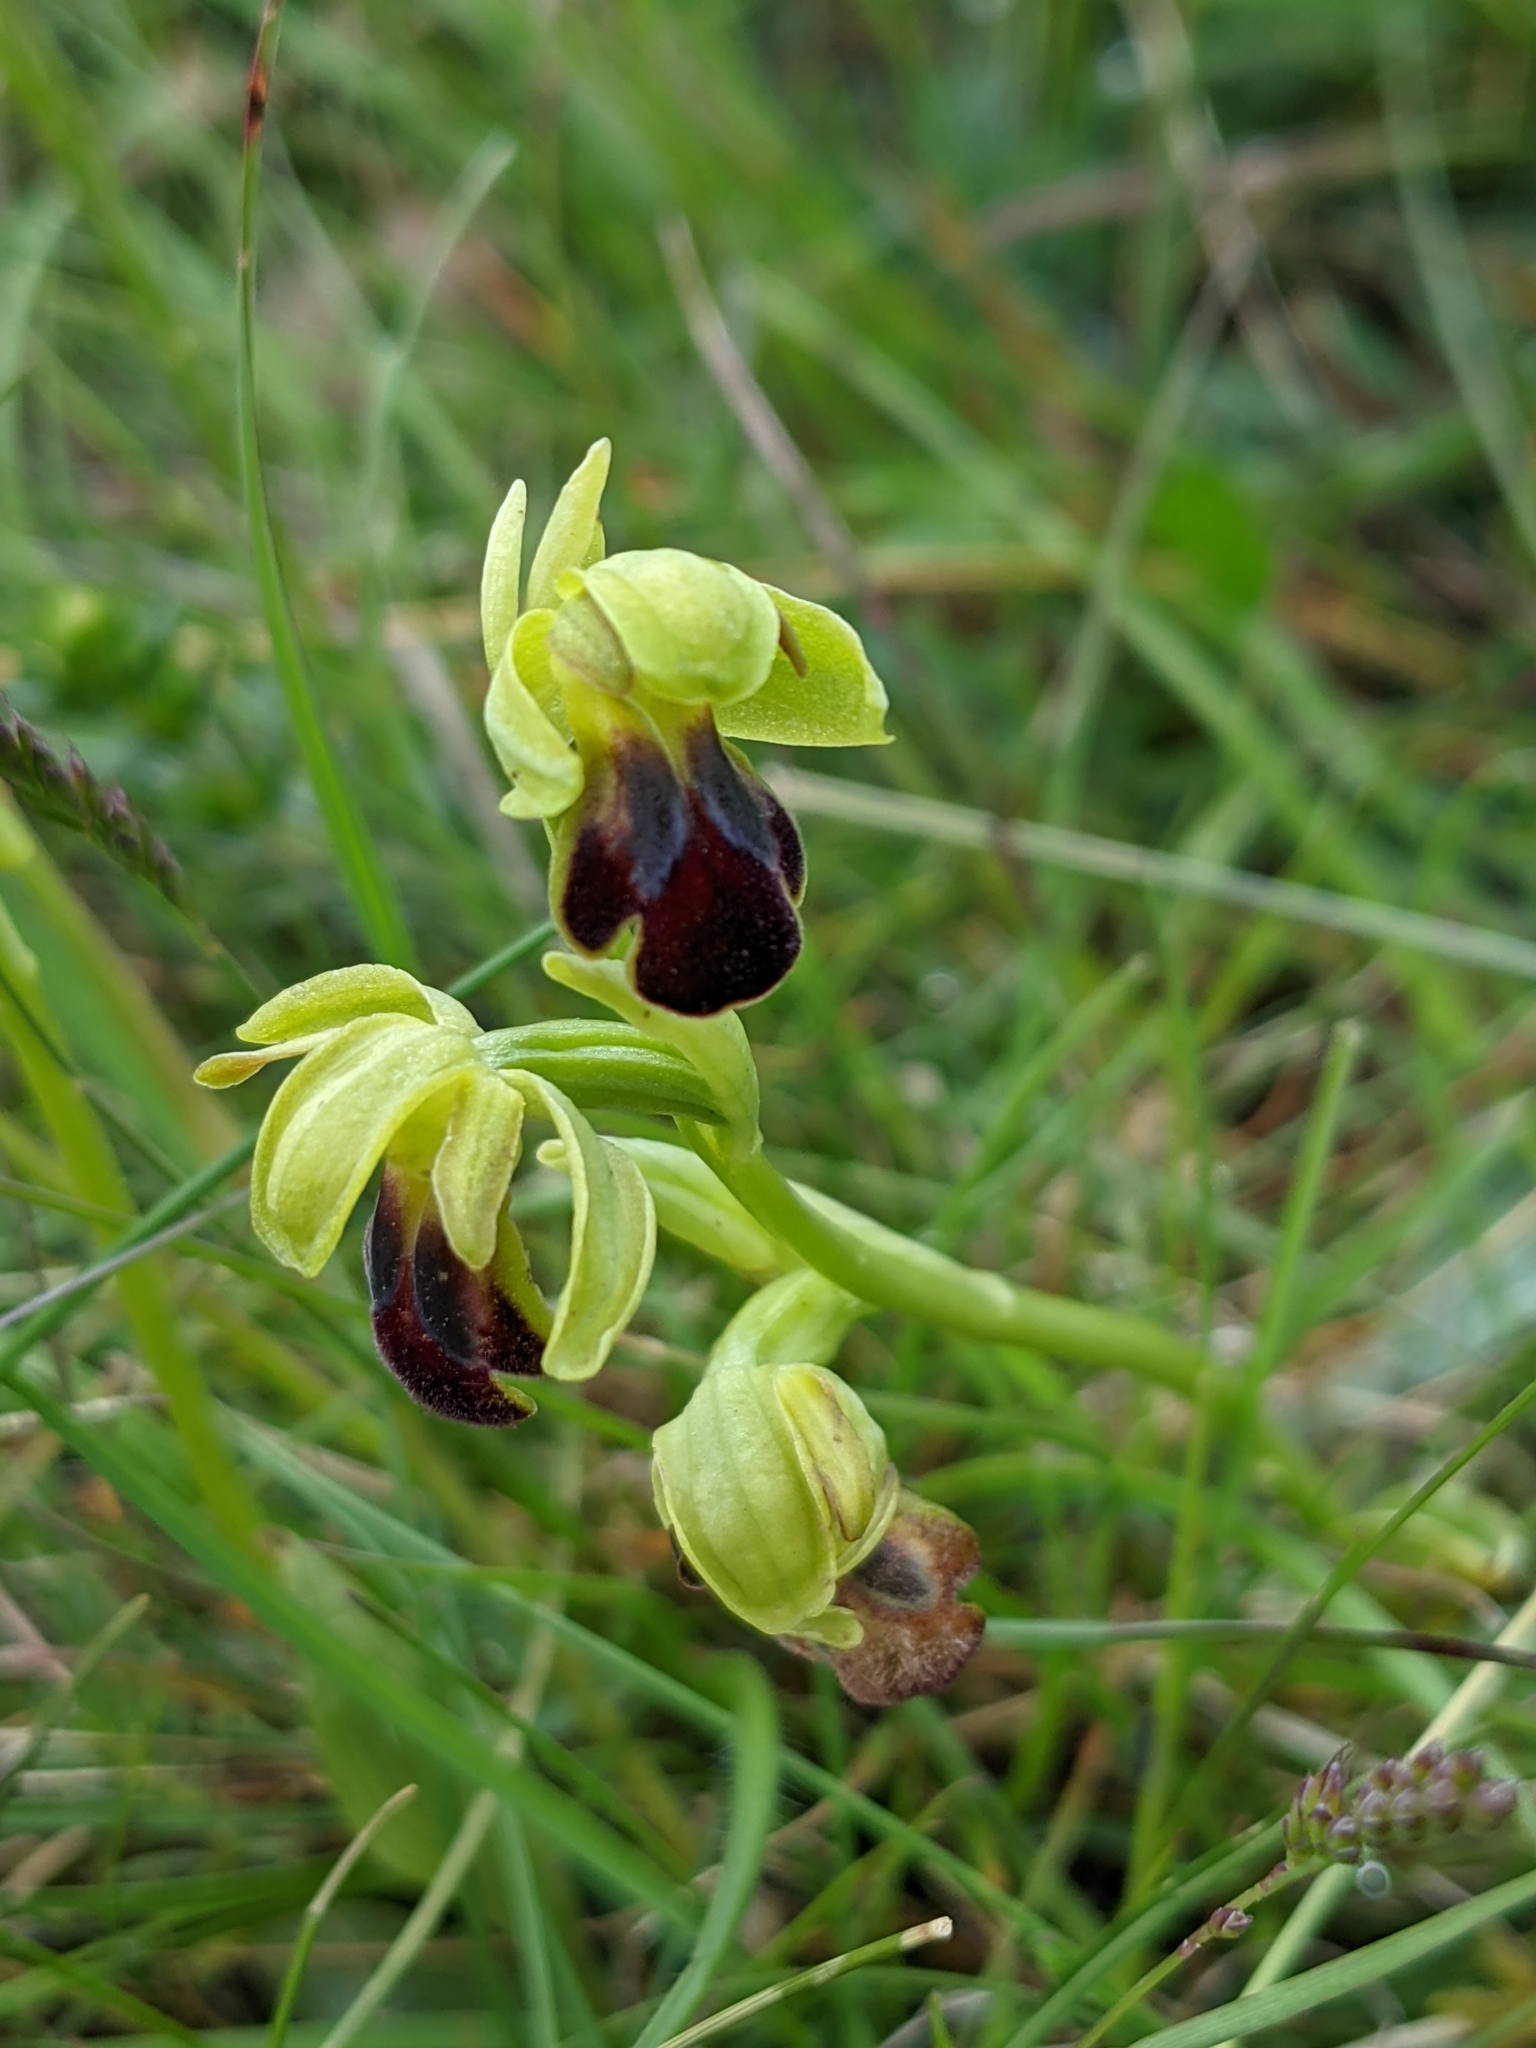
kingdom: Plantae
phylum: Tracheophyta
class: Liliopsida
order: Asparagales
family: Orchidaceae
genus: Ophrys
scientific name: Ophrys fusca
